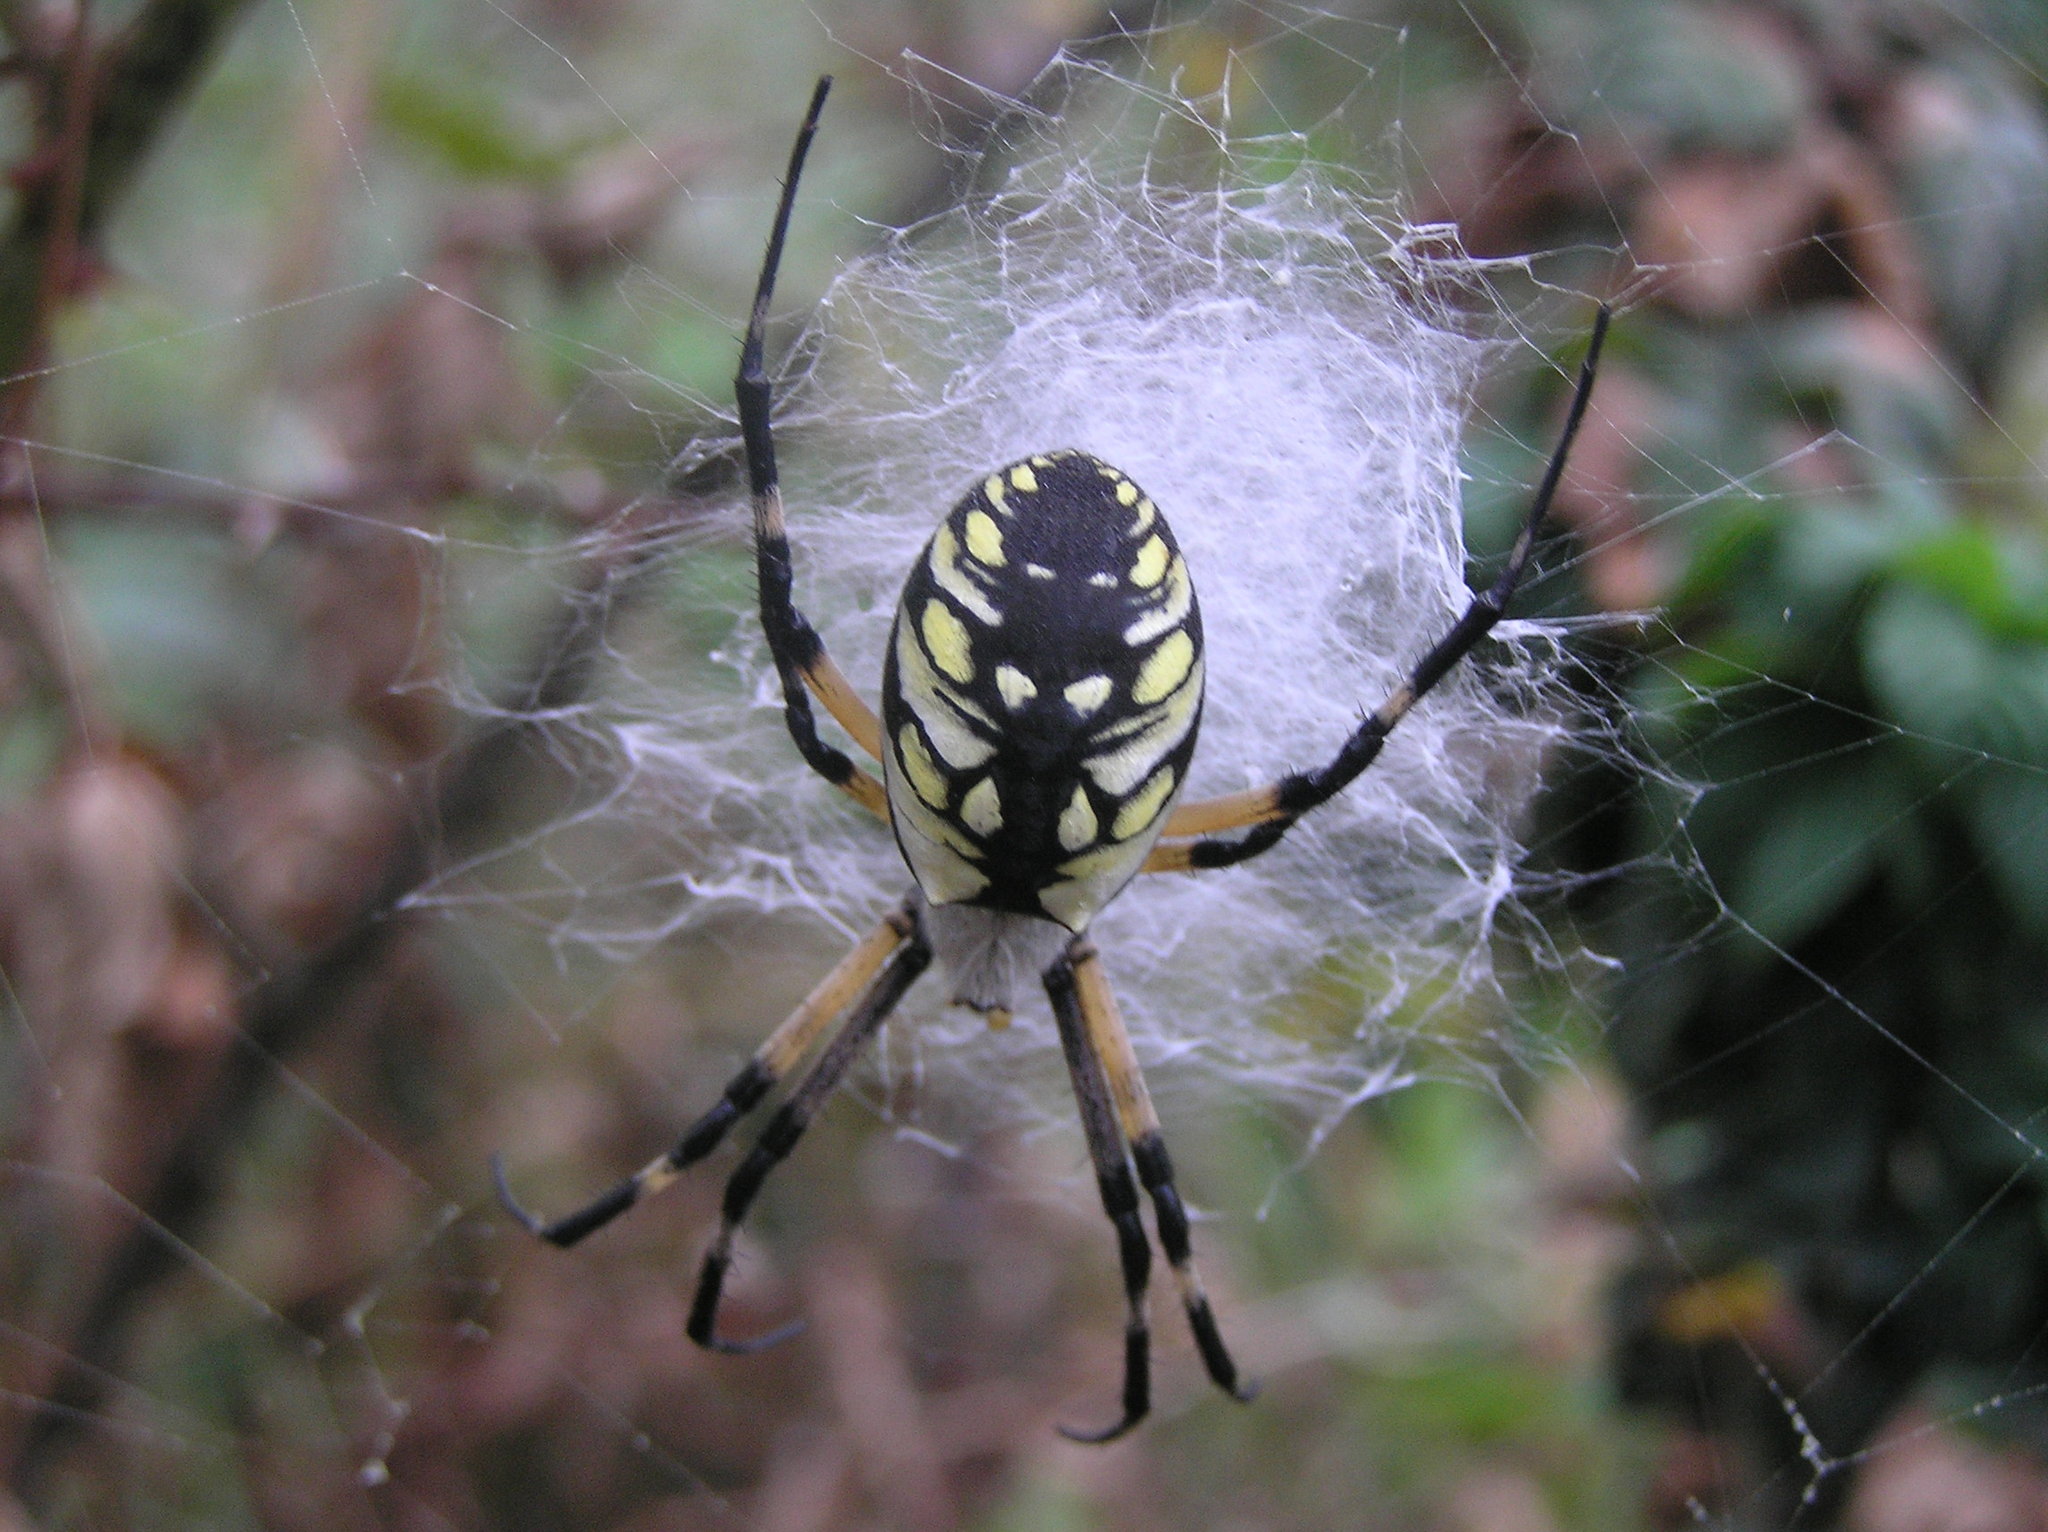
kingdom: Animalia
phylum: Arthropoda
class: Arachnida
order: Araneae
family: Araneidae
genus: Argiope
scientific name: Argiope aurantia
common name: Orb weavers
